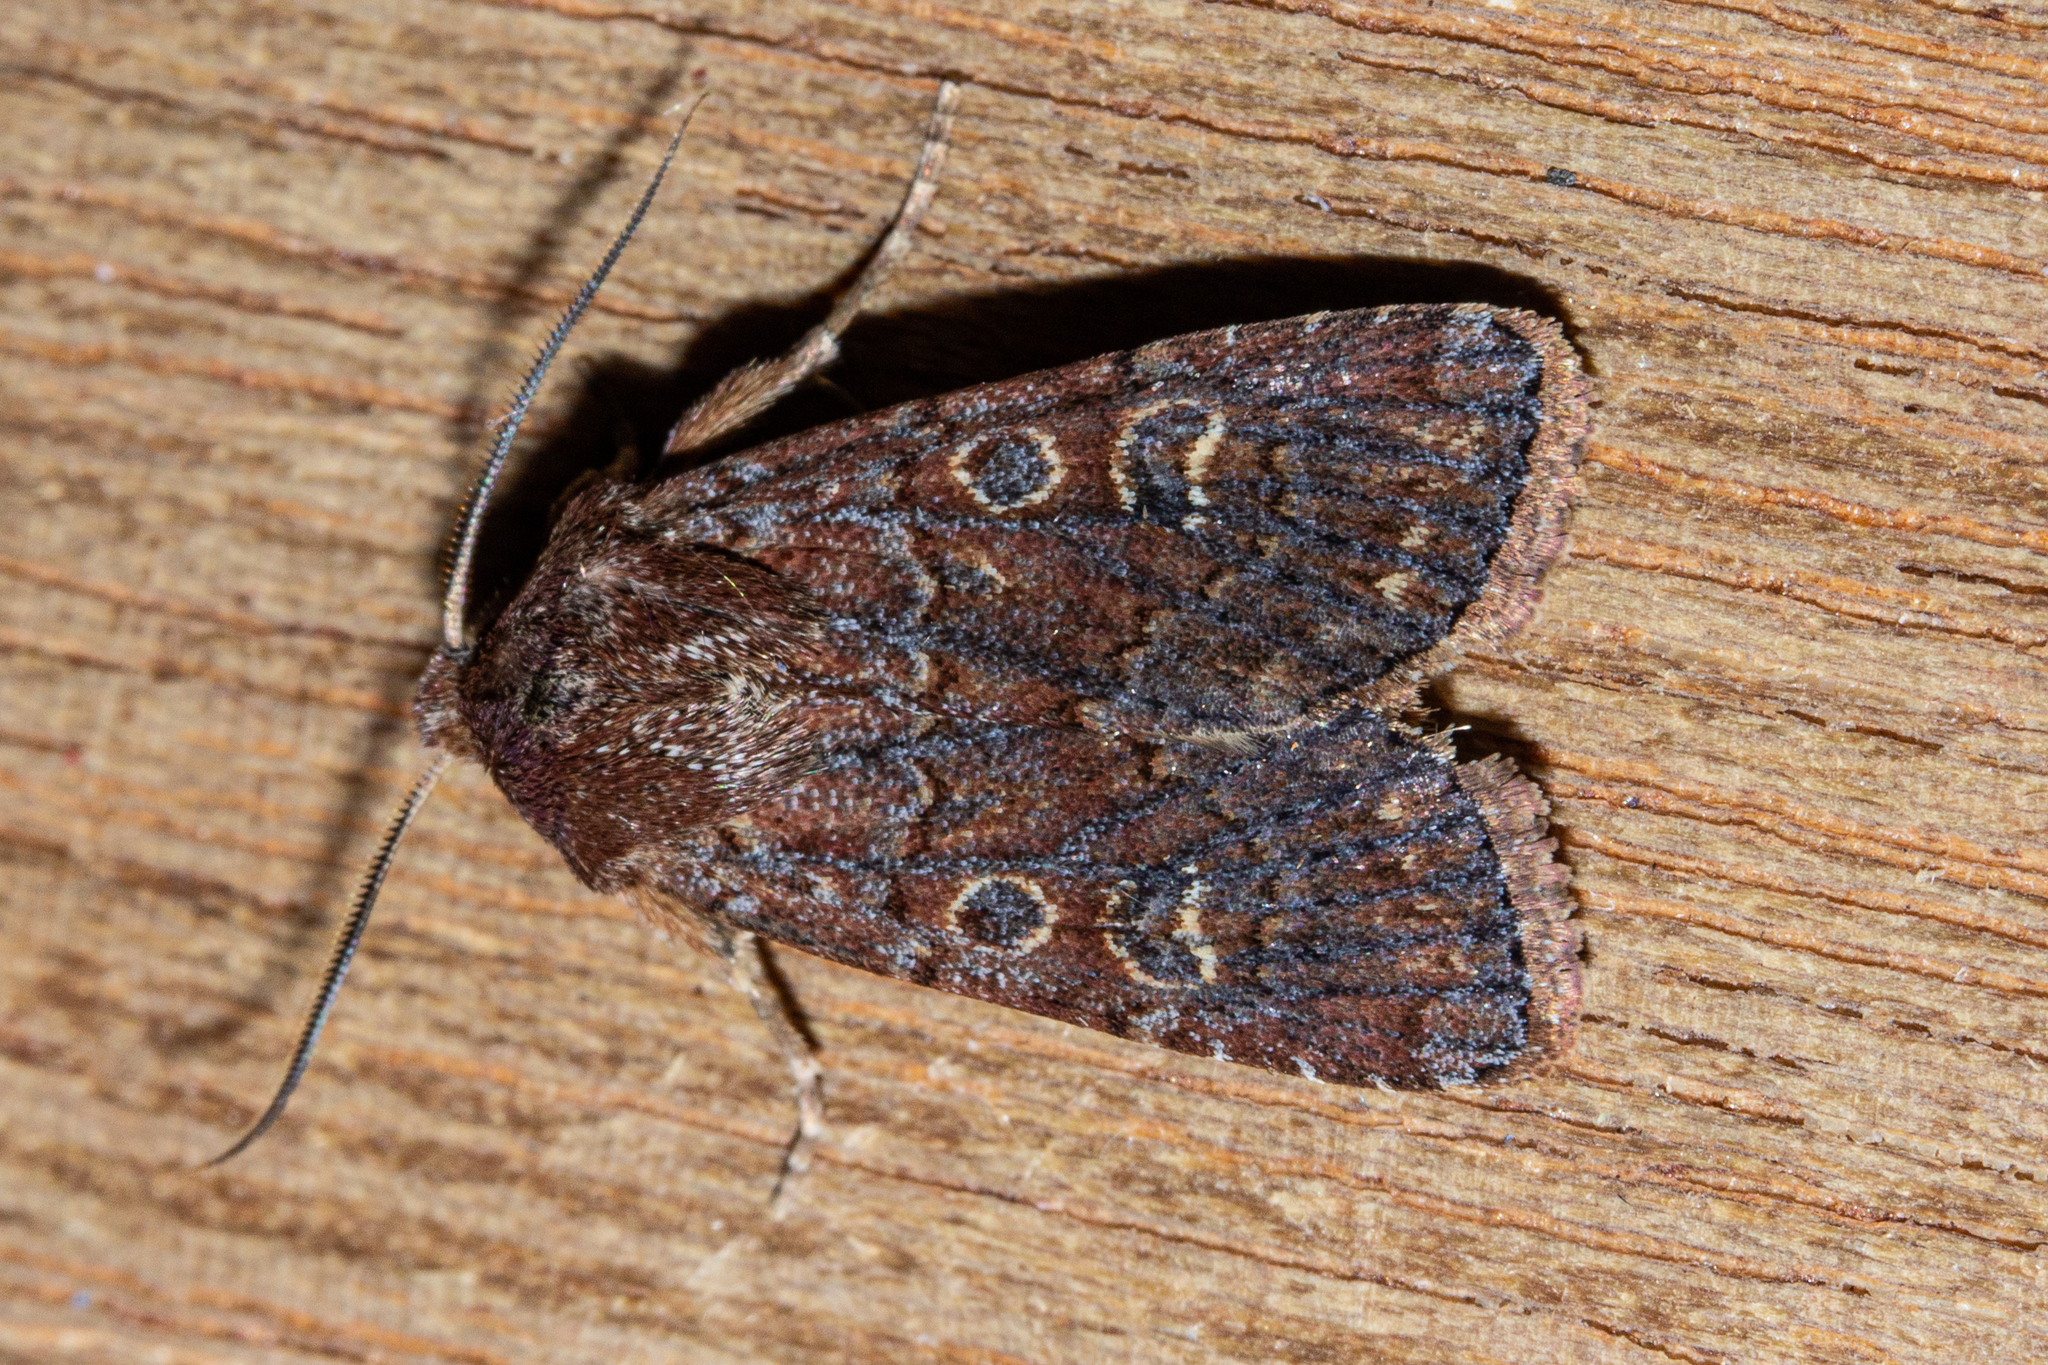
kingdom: Animalia
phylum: Arthropoda
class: Insecta
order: Lepidoptera
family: Noctuidae
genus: Ichneutica
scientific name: Ichneutica agorastis
